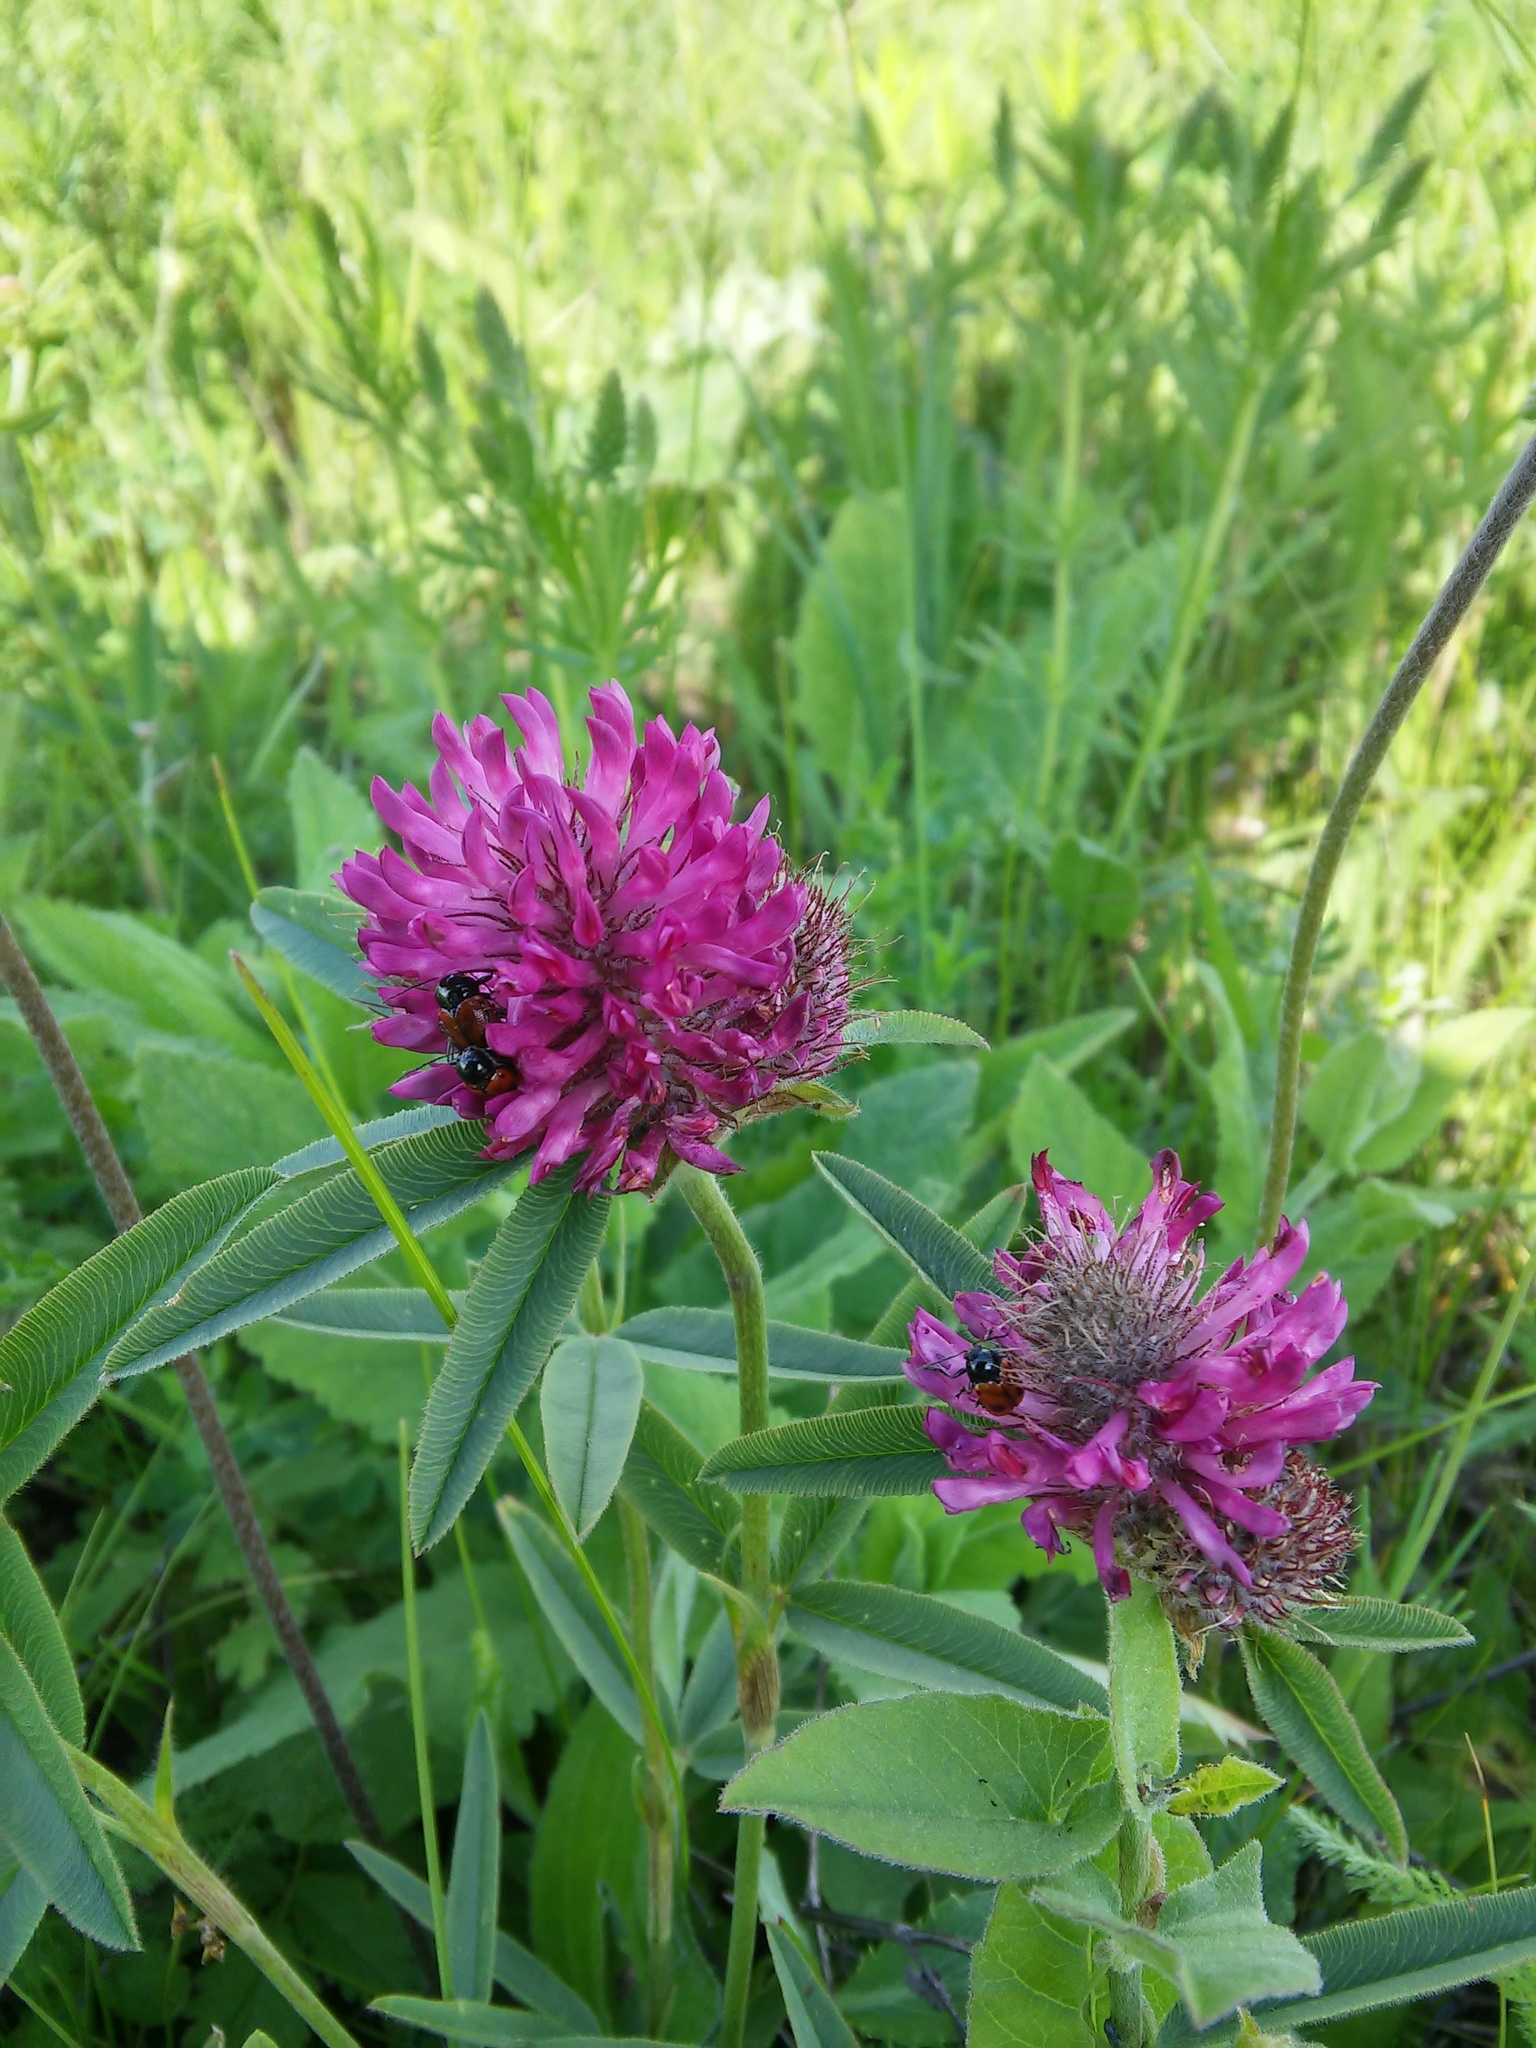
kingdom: Plantae
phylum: Tracheophyta
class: Magnoliopsida
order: Fabales
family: Fabaceae
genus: Trifolium
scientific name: Trifolium alpestre
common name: Owl-head clover
